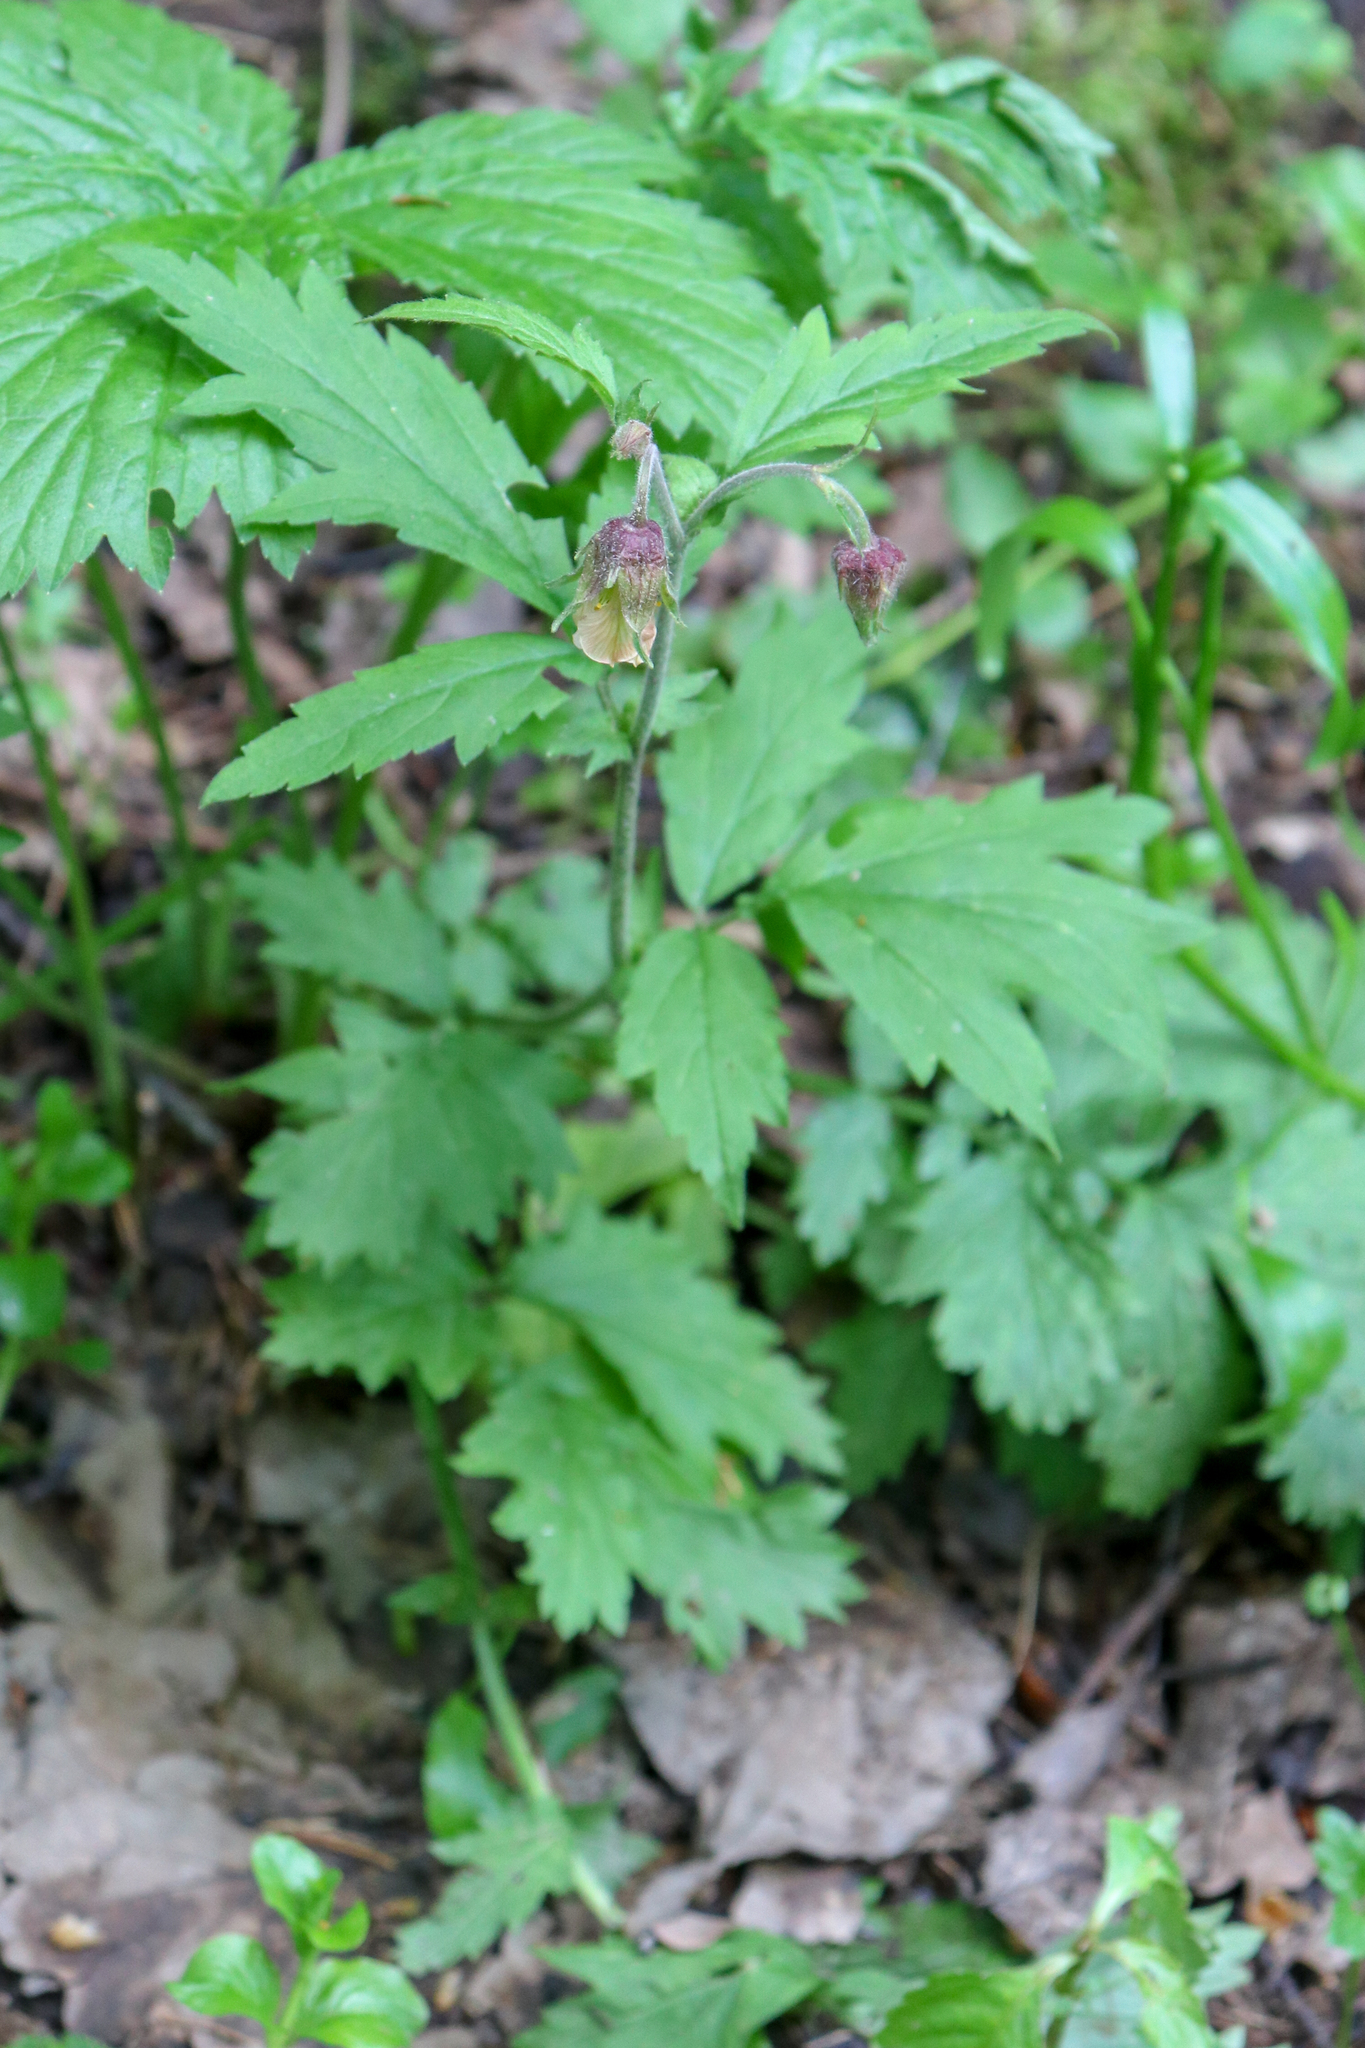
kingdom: Plantae
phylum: Tracheophyta
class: Magnoliopsida
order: Rosales
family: Rosaceae
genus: Geum
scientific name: Geum rivale
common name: Water avens
